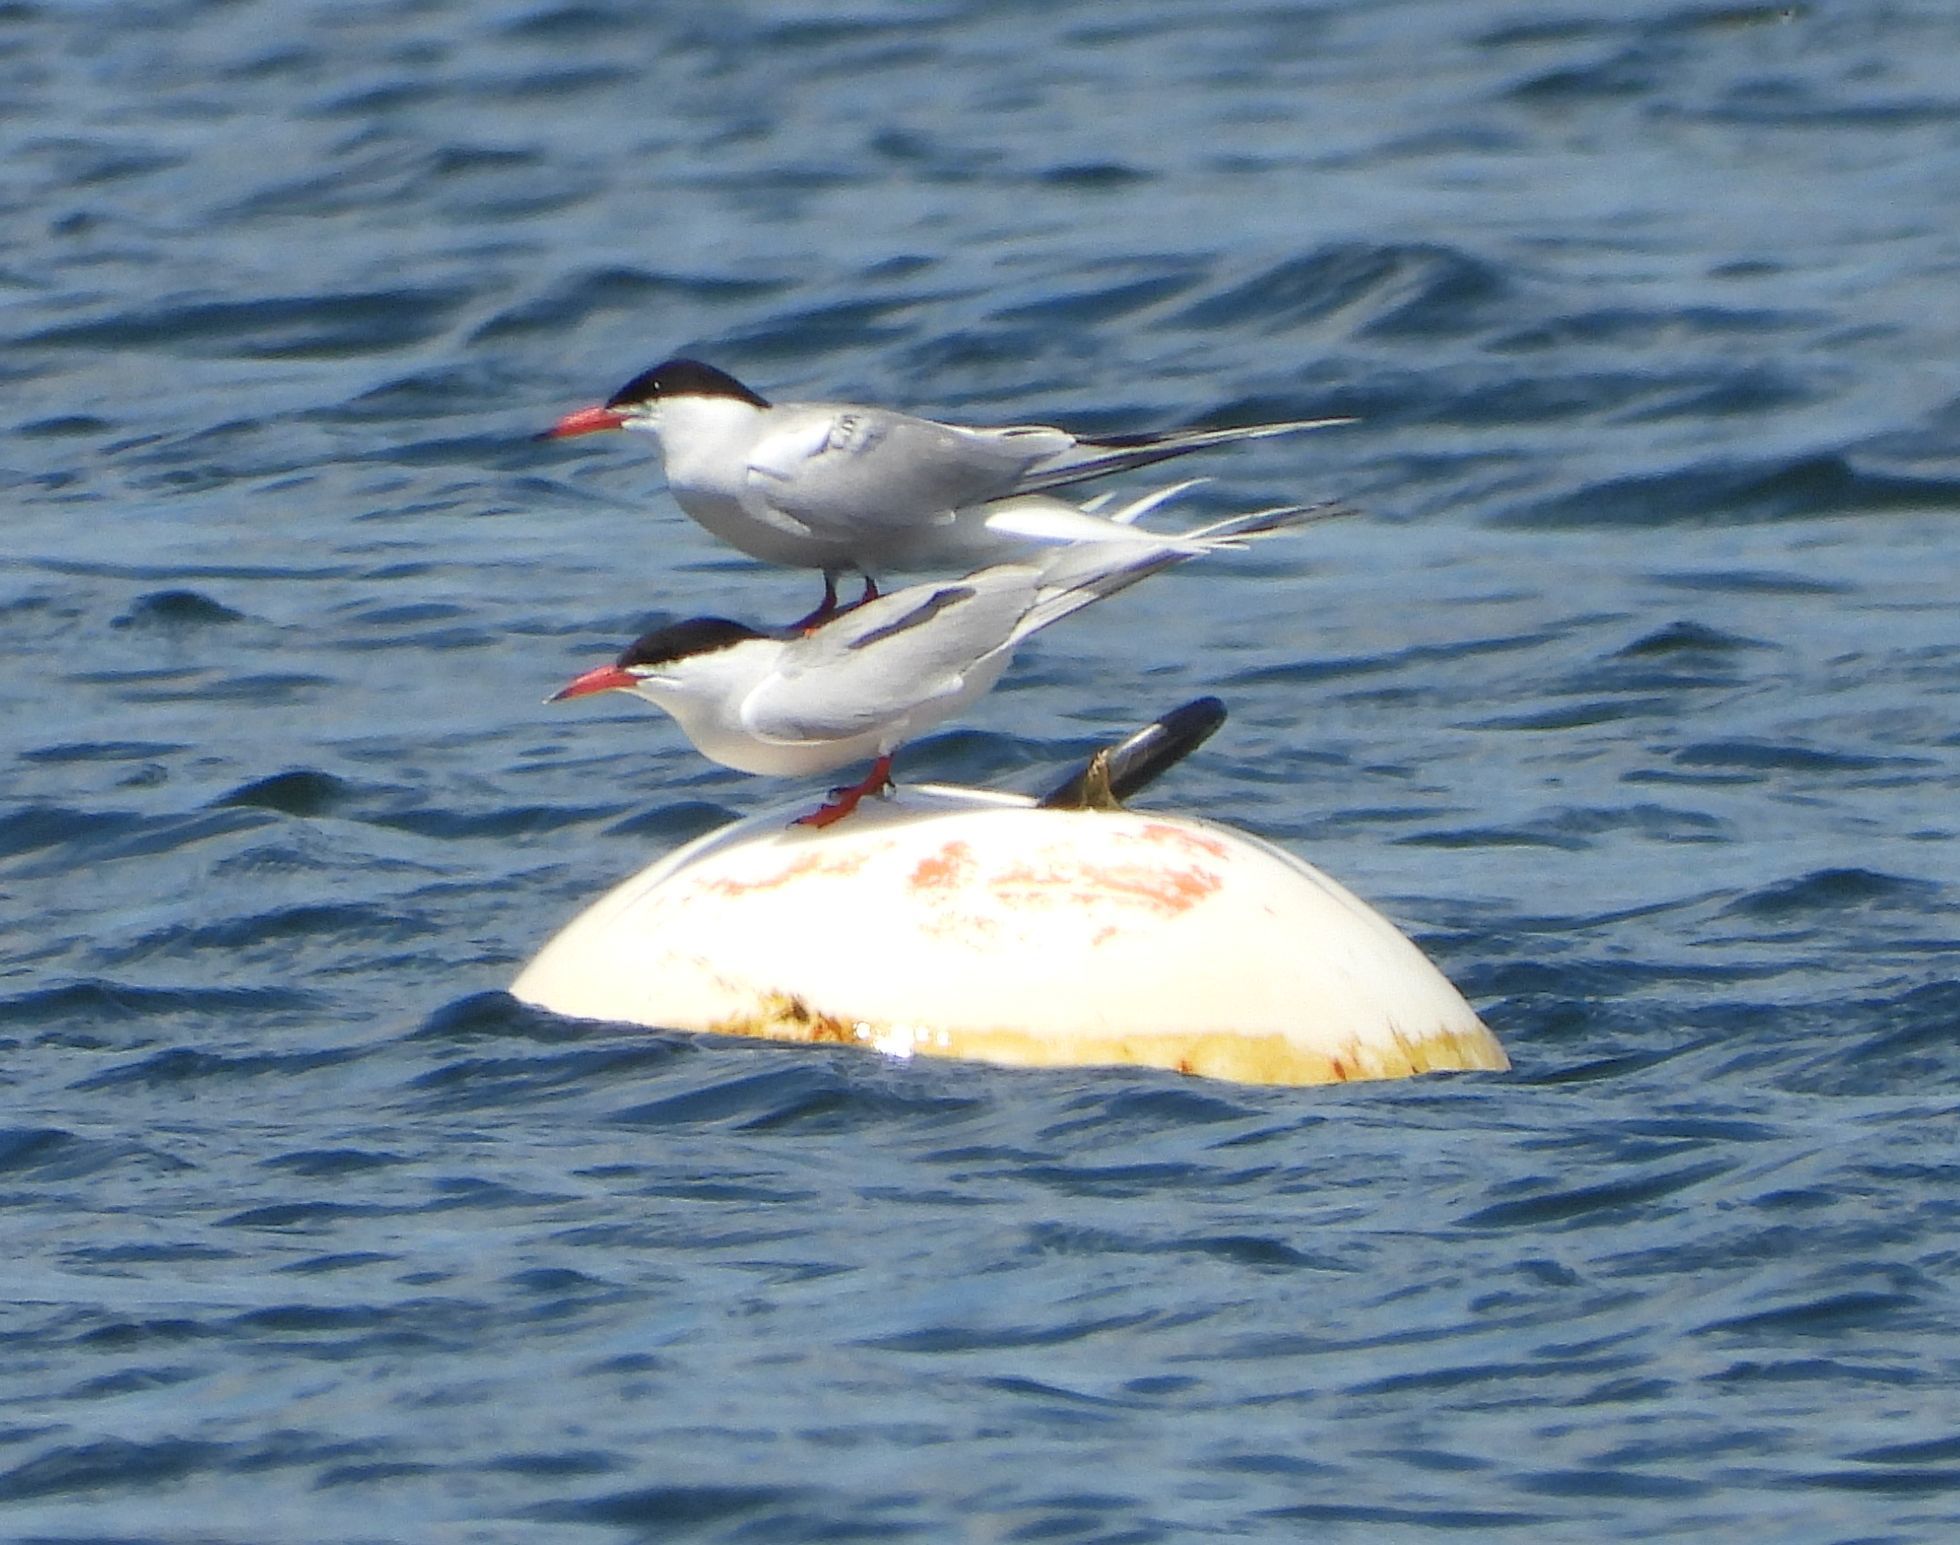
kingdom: Animalia
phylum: Chordata
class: Aves
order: Charadriiformes
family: Laridae
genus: Sterna
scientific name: Sterna hirundo
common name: Common tern
